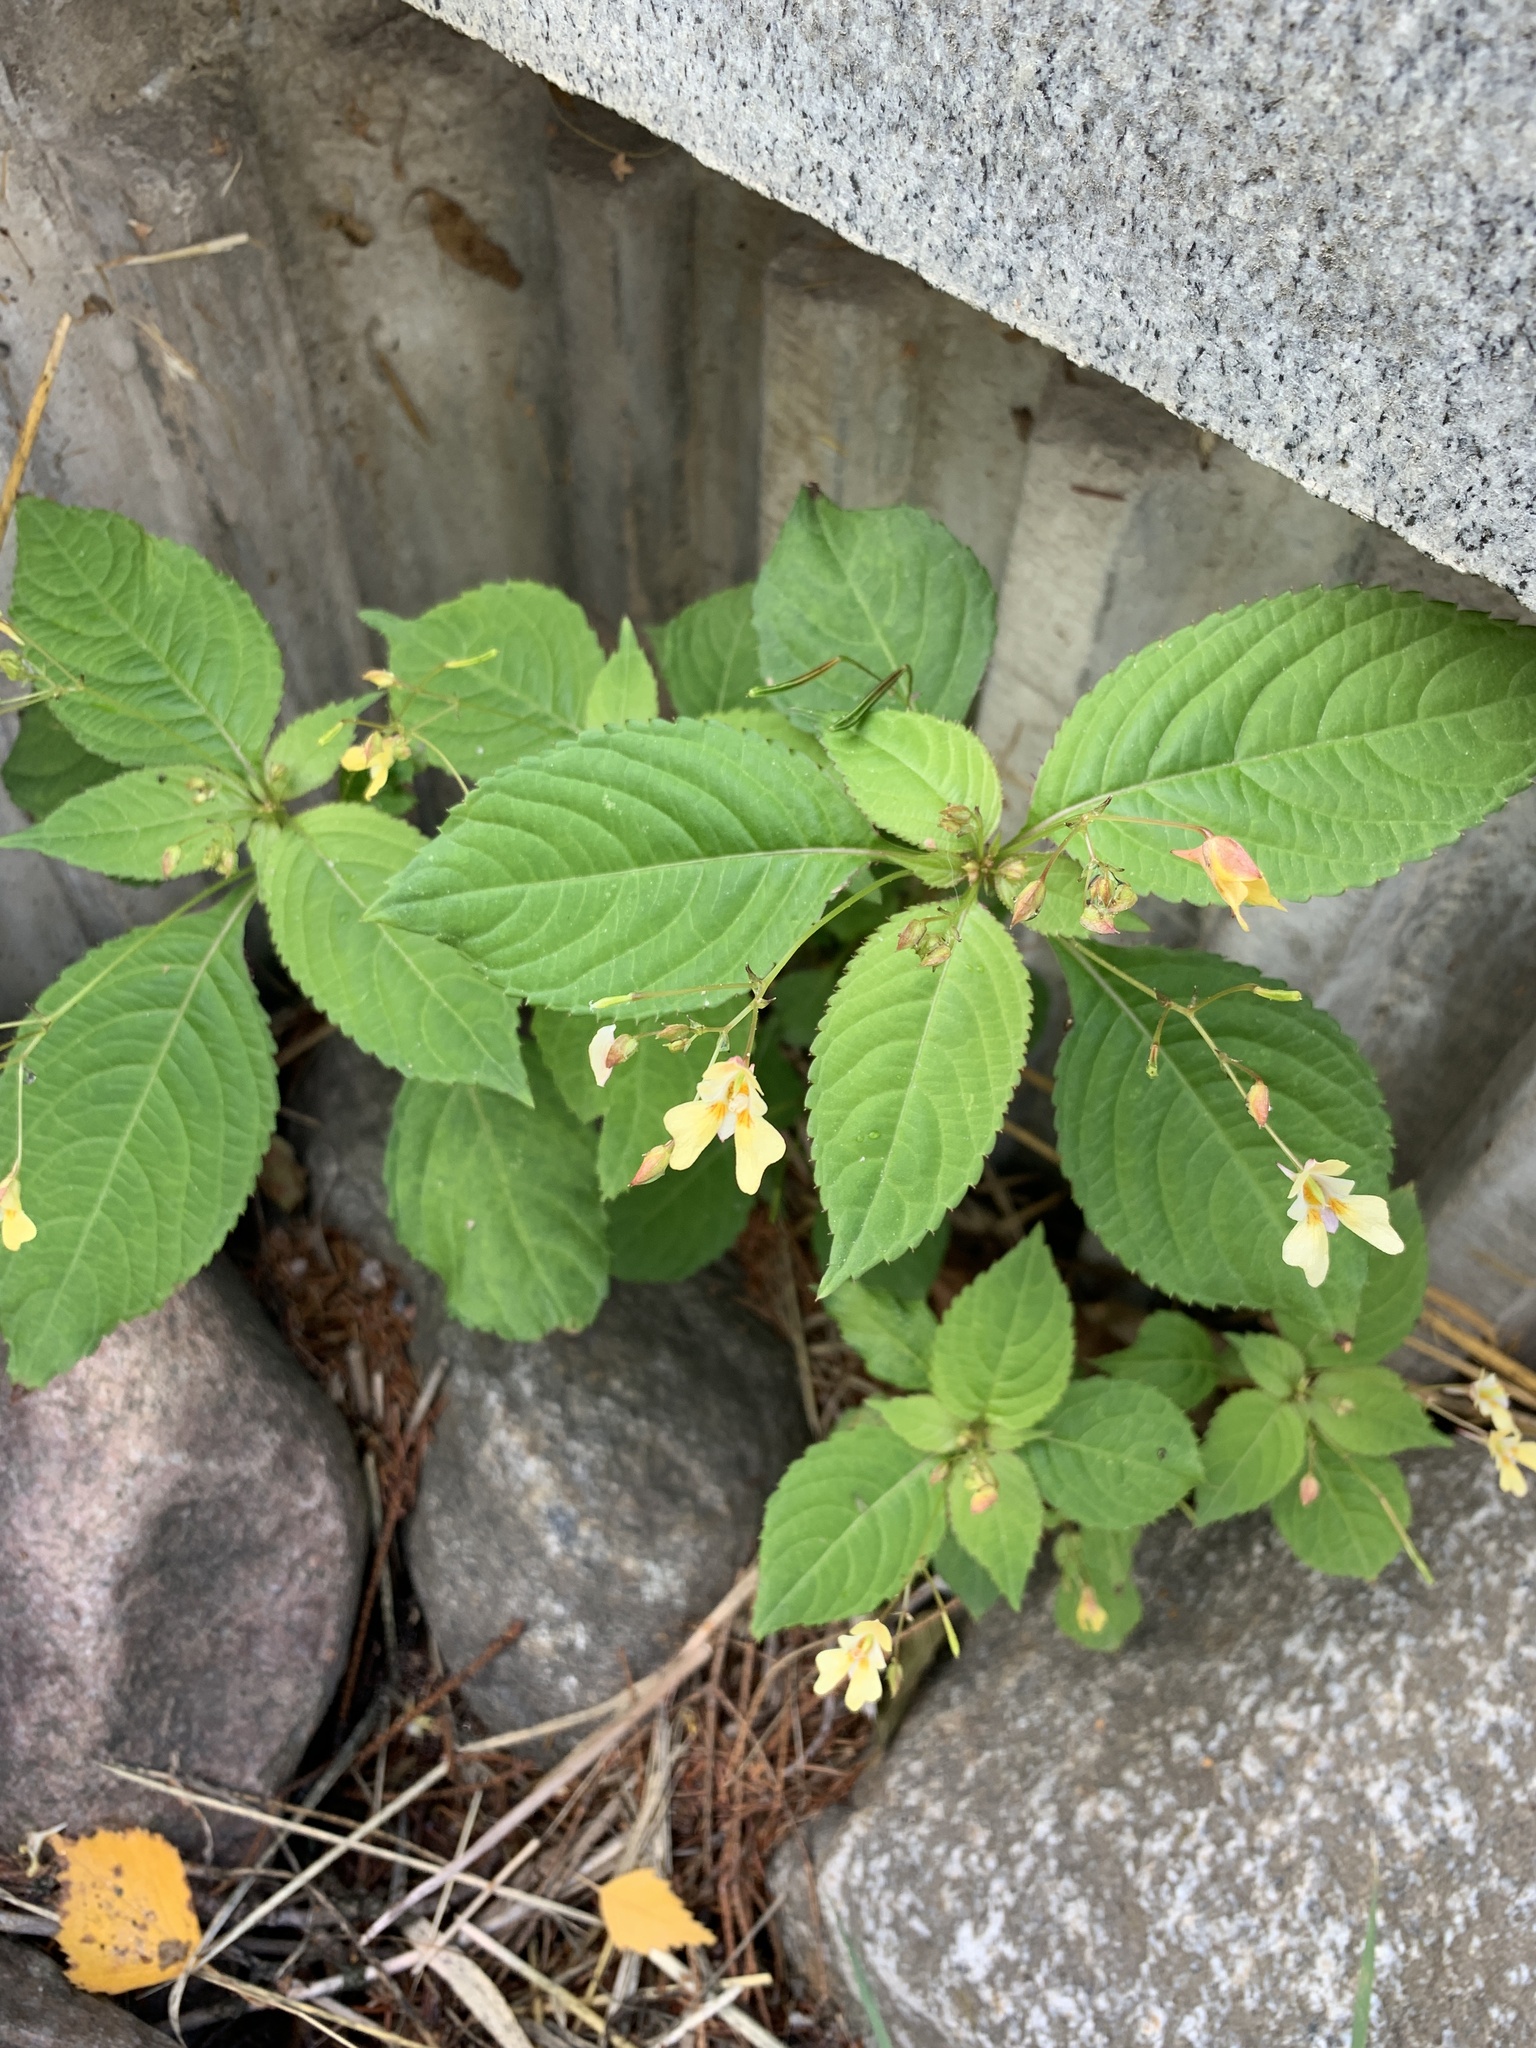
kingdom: Plantae
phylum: Tracheophyta
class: Magnoliopsida
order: Ericales
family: Balsaminaceae
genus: Impatiens
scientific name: Impatiens parviflora
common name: Small balsam
